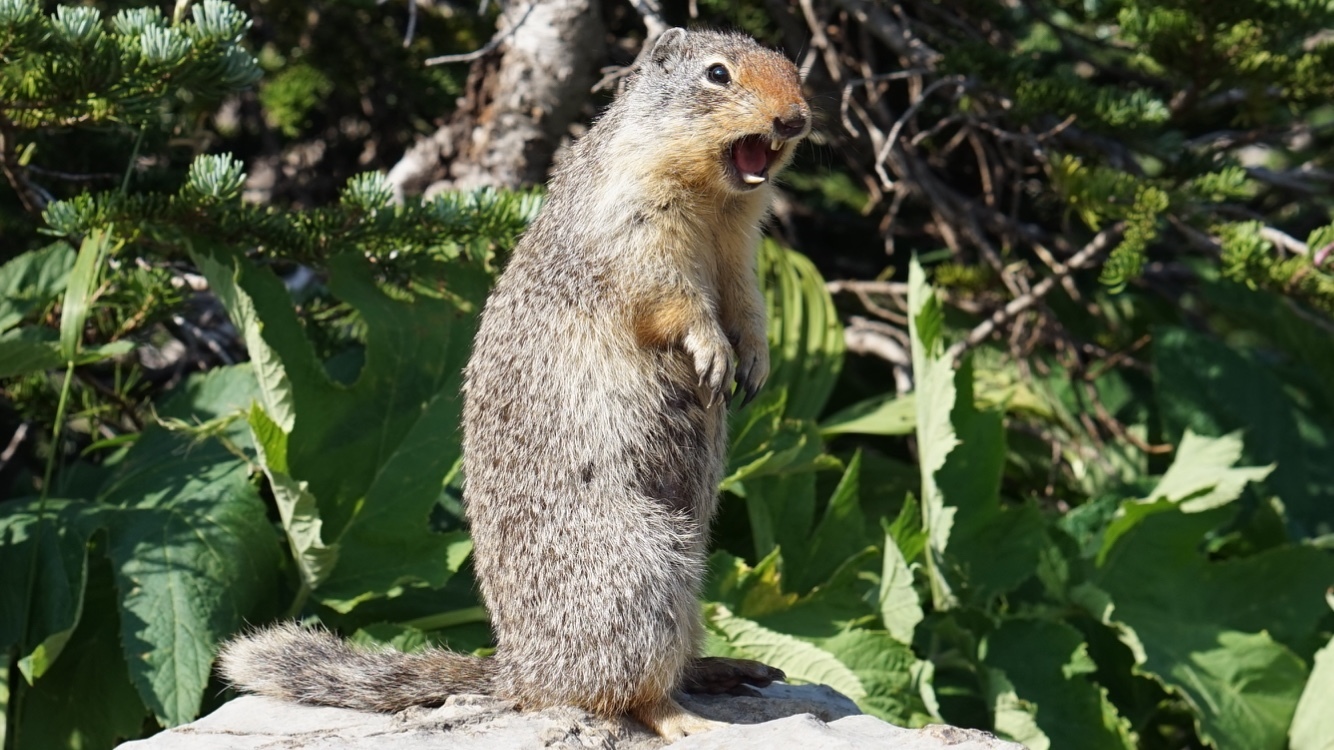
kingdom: Animalia
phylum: Chordata
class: Mammalia
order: Rodentia
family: Sciuridae
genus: Urocitellus
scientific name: Urocitellus columbianus
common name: Columbian ground squirrel
